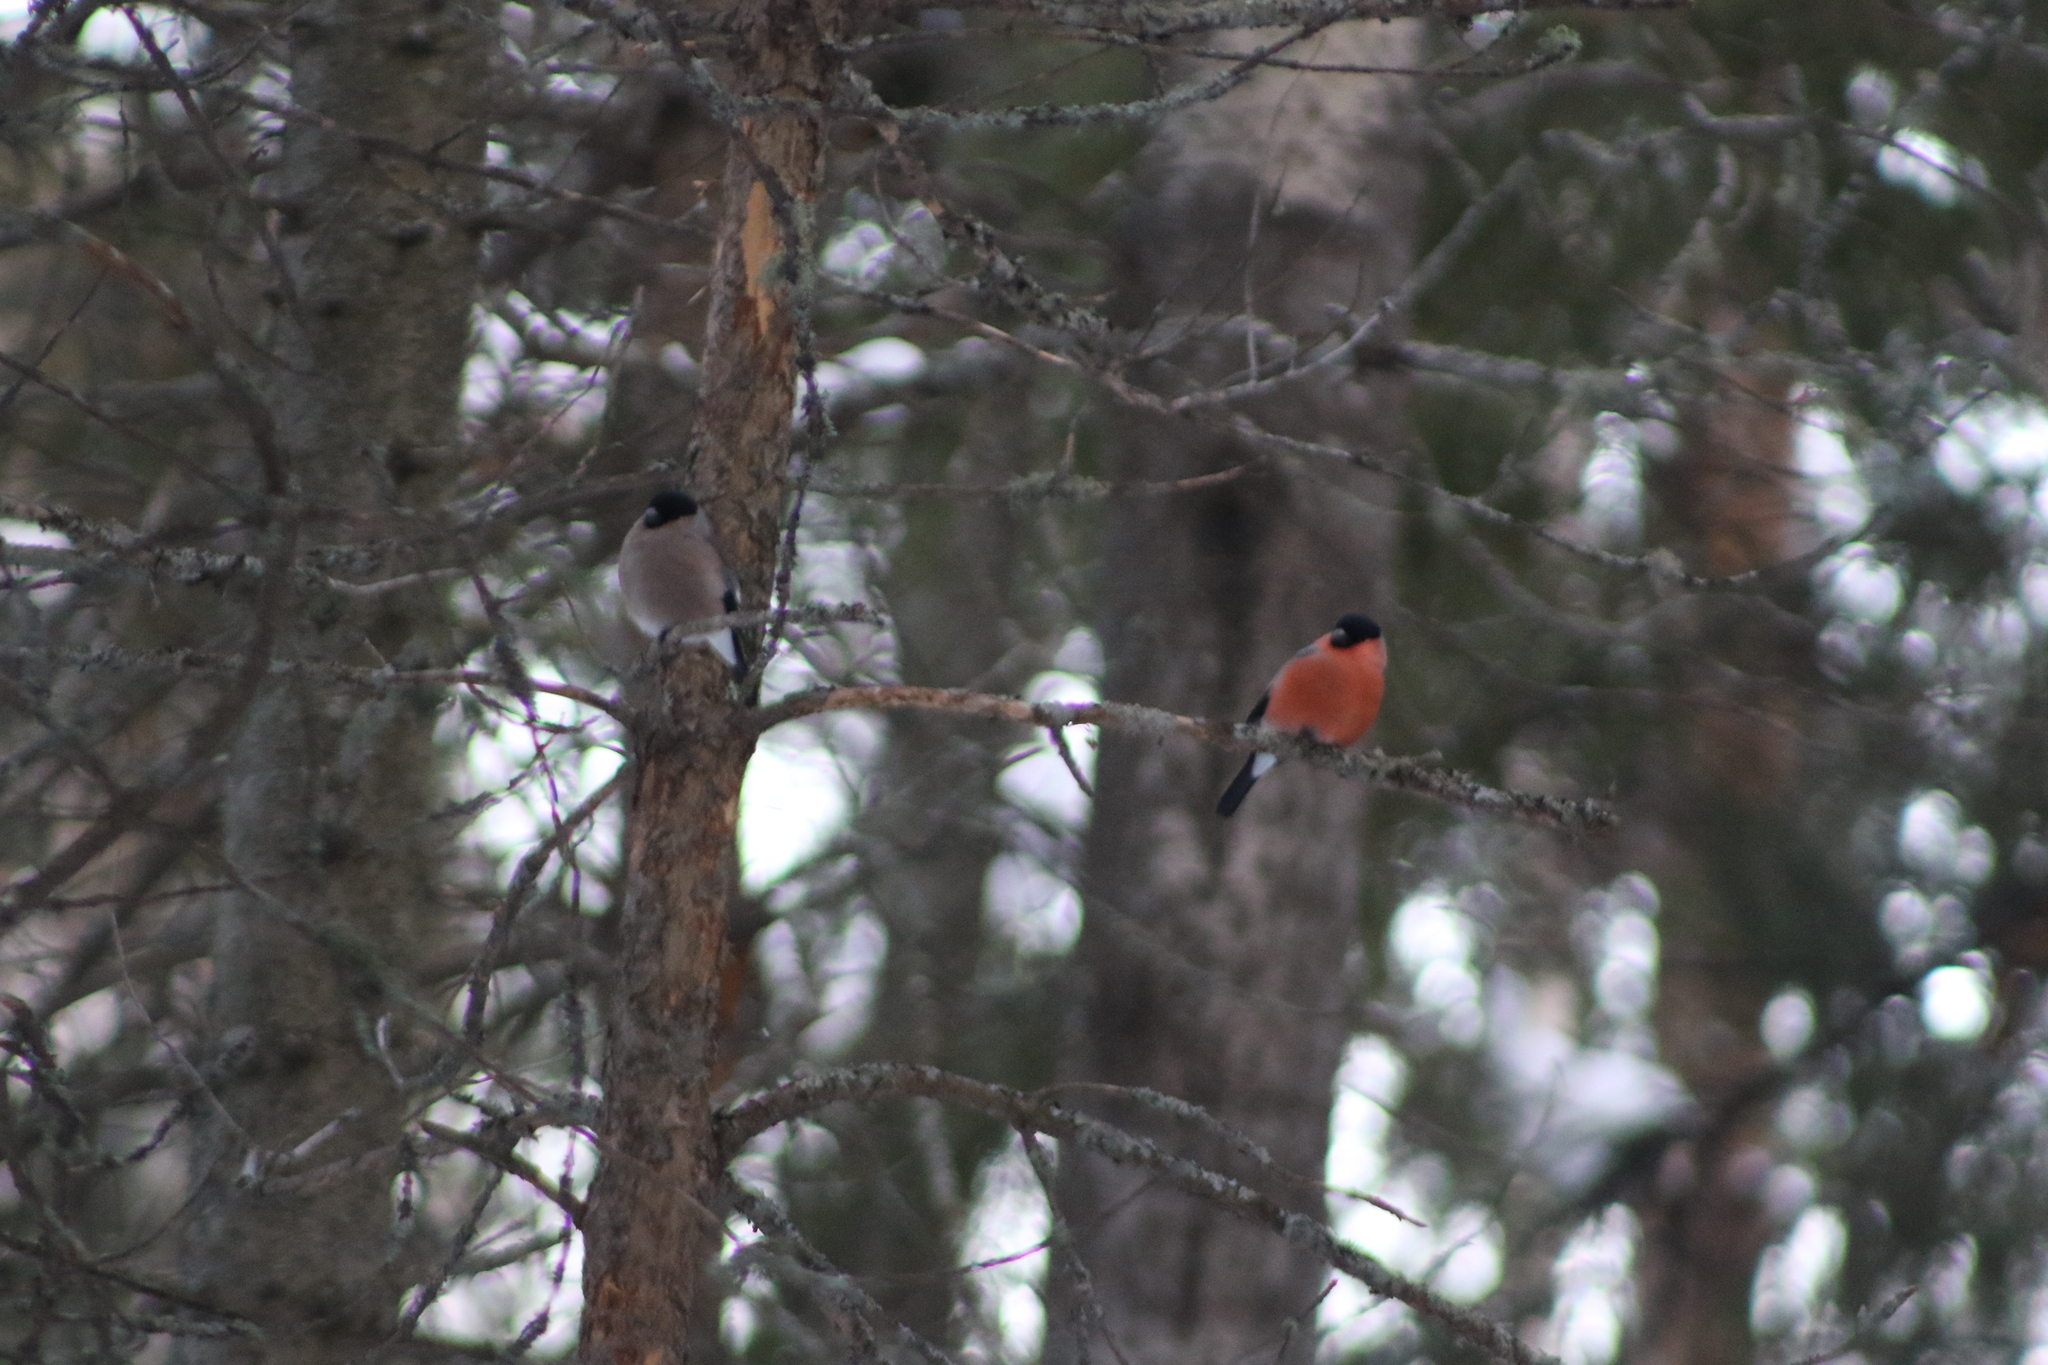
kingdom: Animalia
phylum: Chordata
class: Aves
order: Passeriformes
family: Fringillidae
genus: Pyrrhula
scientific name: Pyrrhula pyrrhula
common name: Eurasian bullfinch
